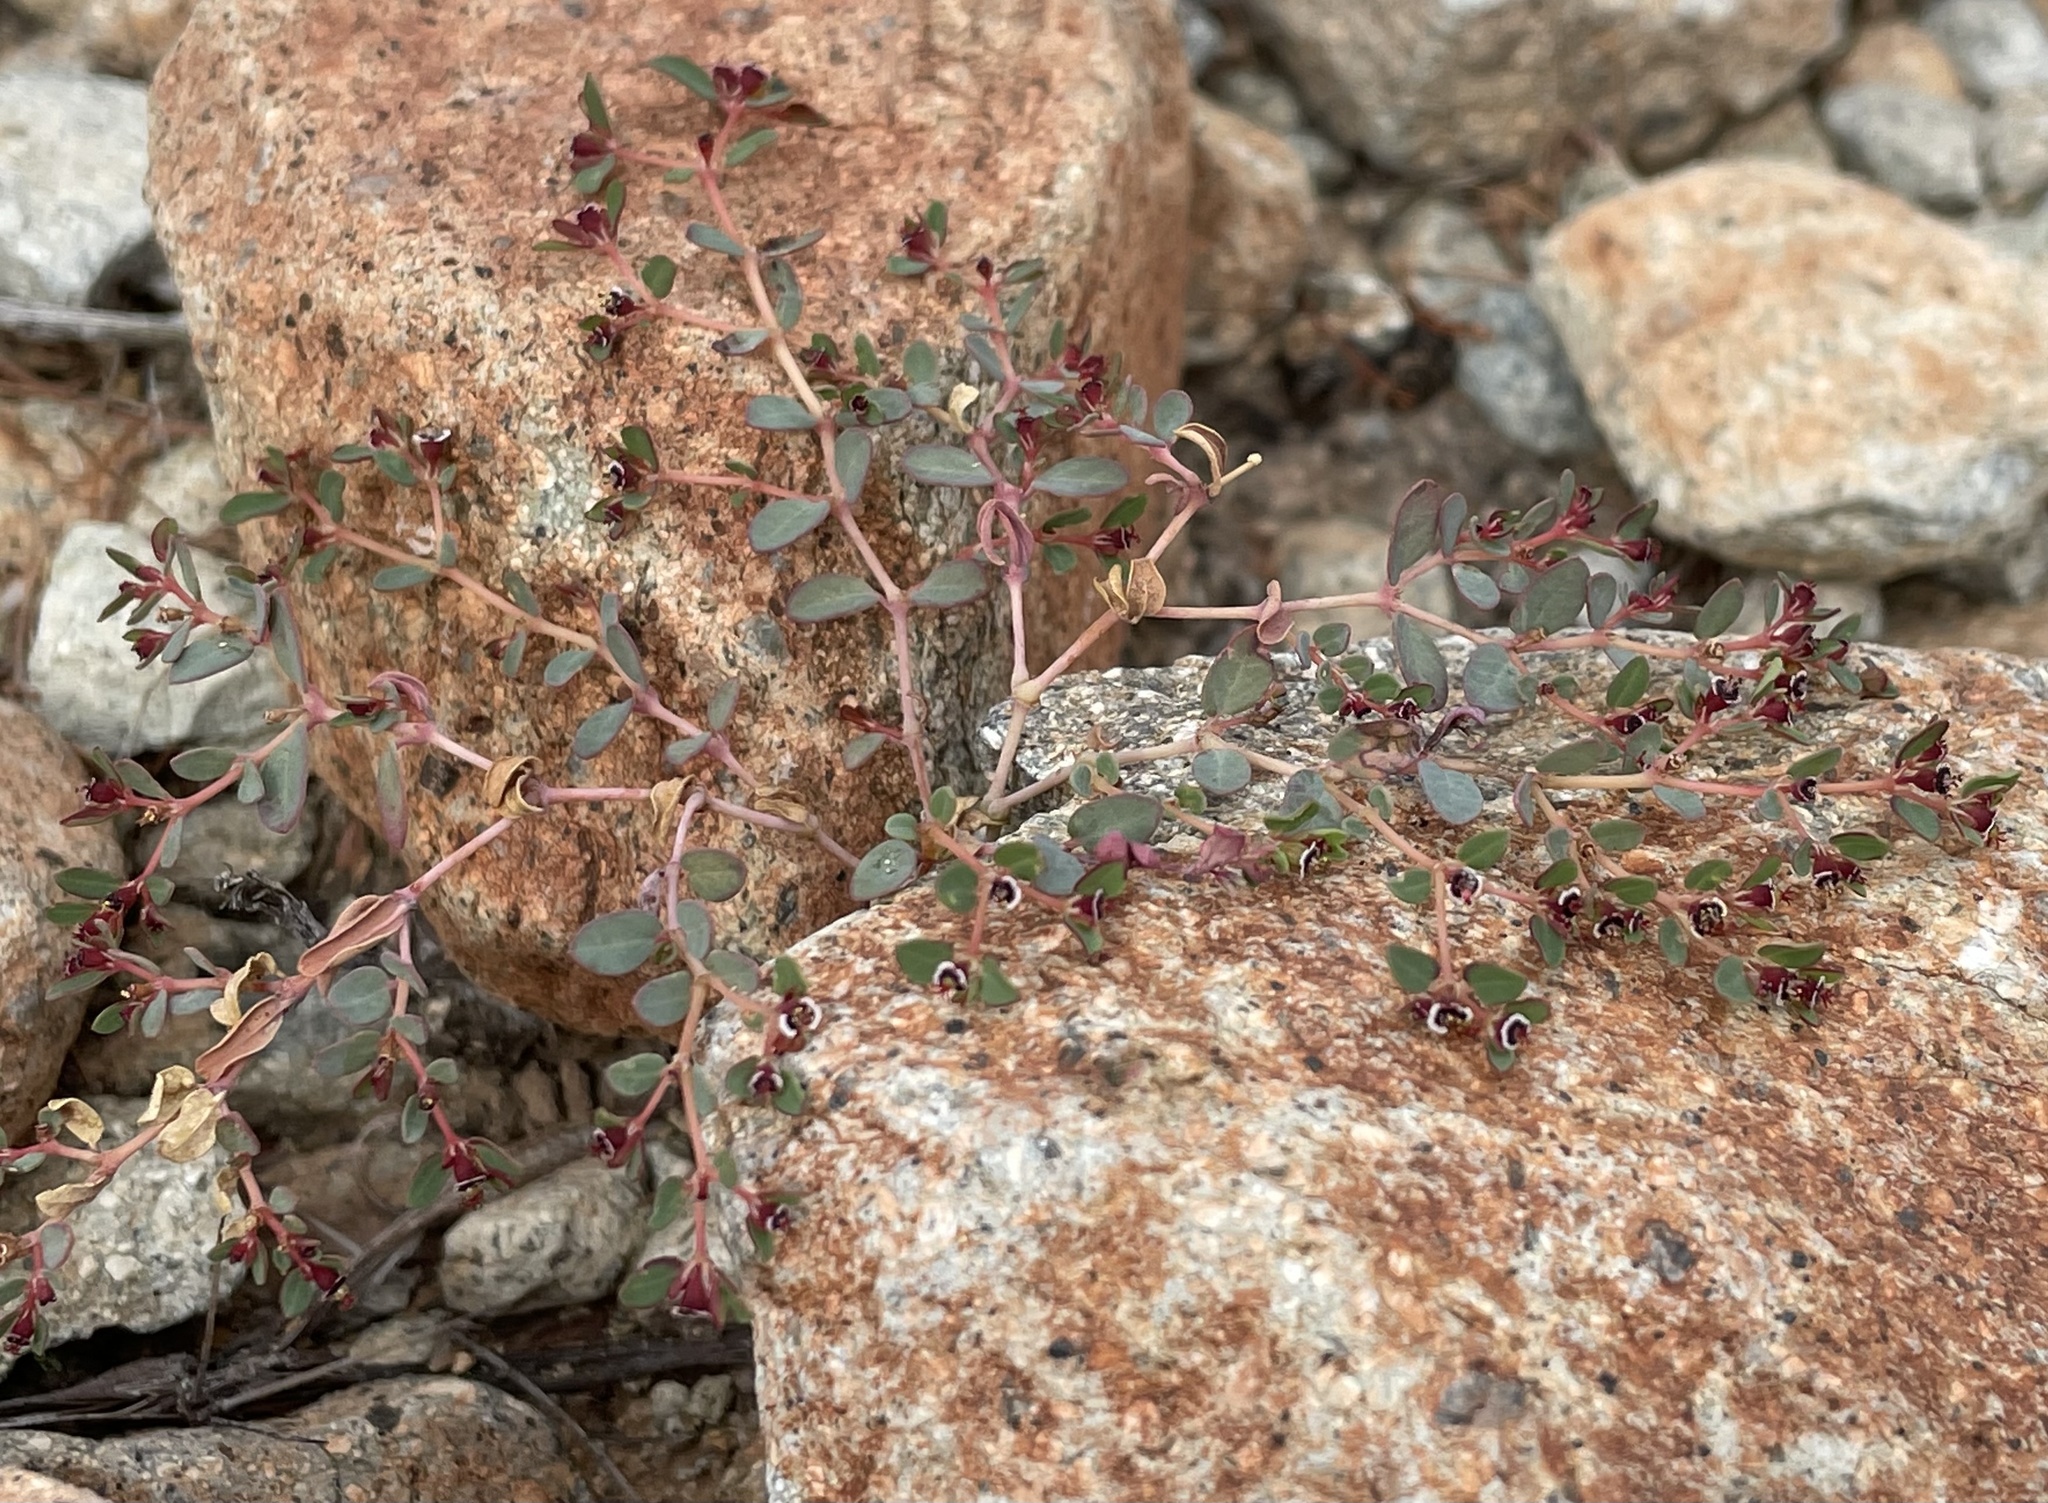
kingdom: Plantae
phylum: Tracheophyta
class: Magnoliopsida
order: Malpighiales
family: Euphorbiaceae
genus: Euphorbia
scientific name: Euphorbia polycarpa
